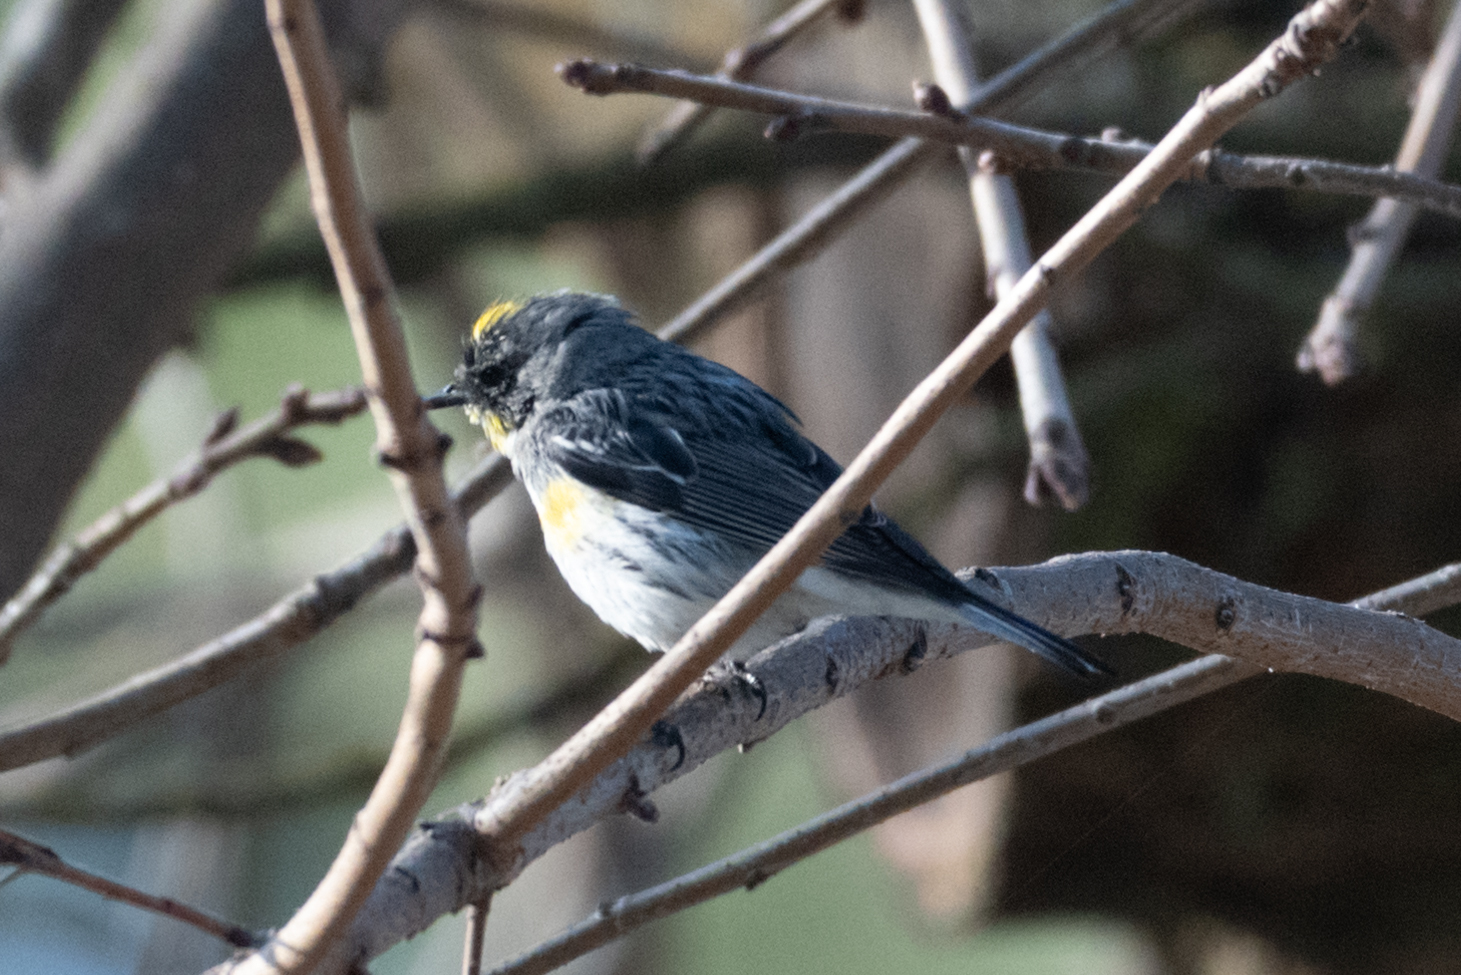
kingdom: Animalia
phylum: Chordata
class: Aves
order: Passeriformes
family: Parulidae
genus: Setophaga
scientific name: Setophaga coronata
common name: Myrtle warbler
